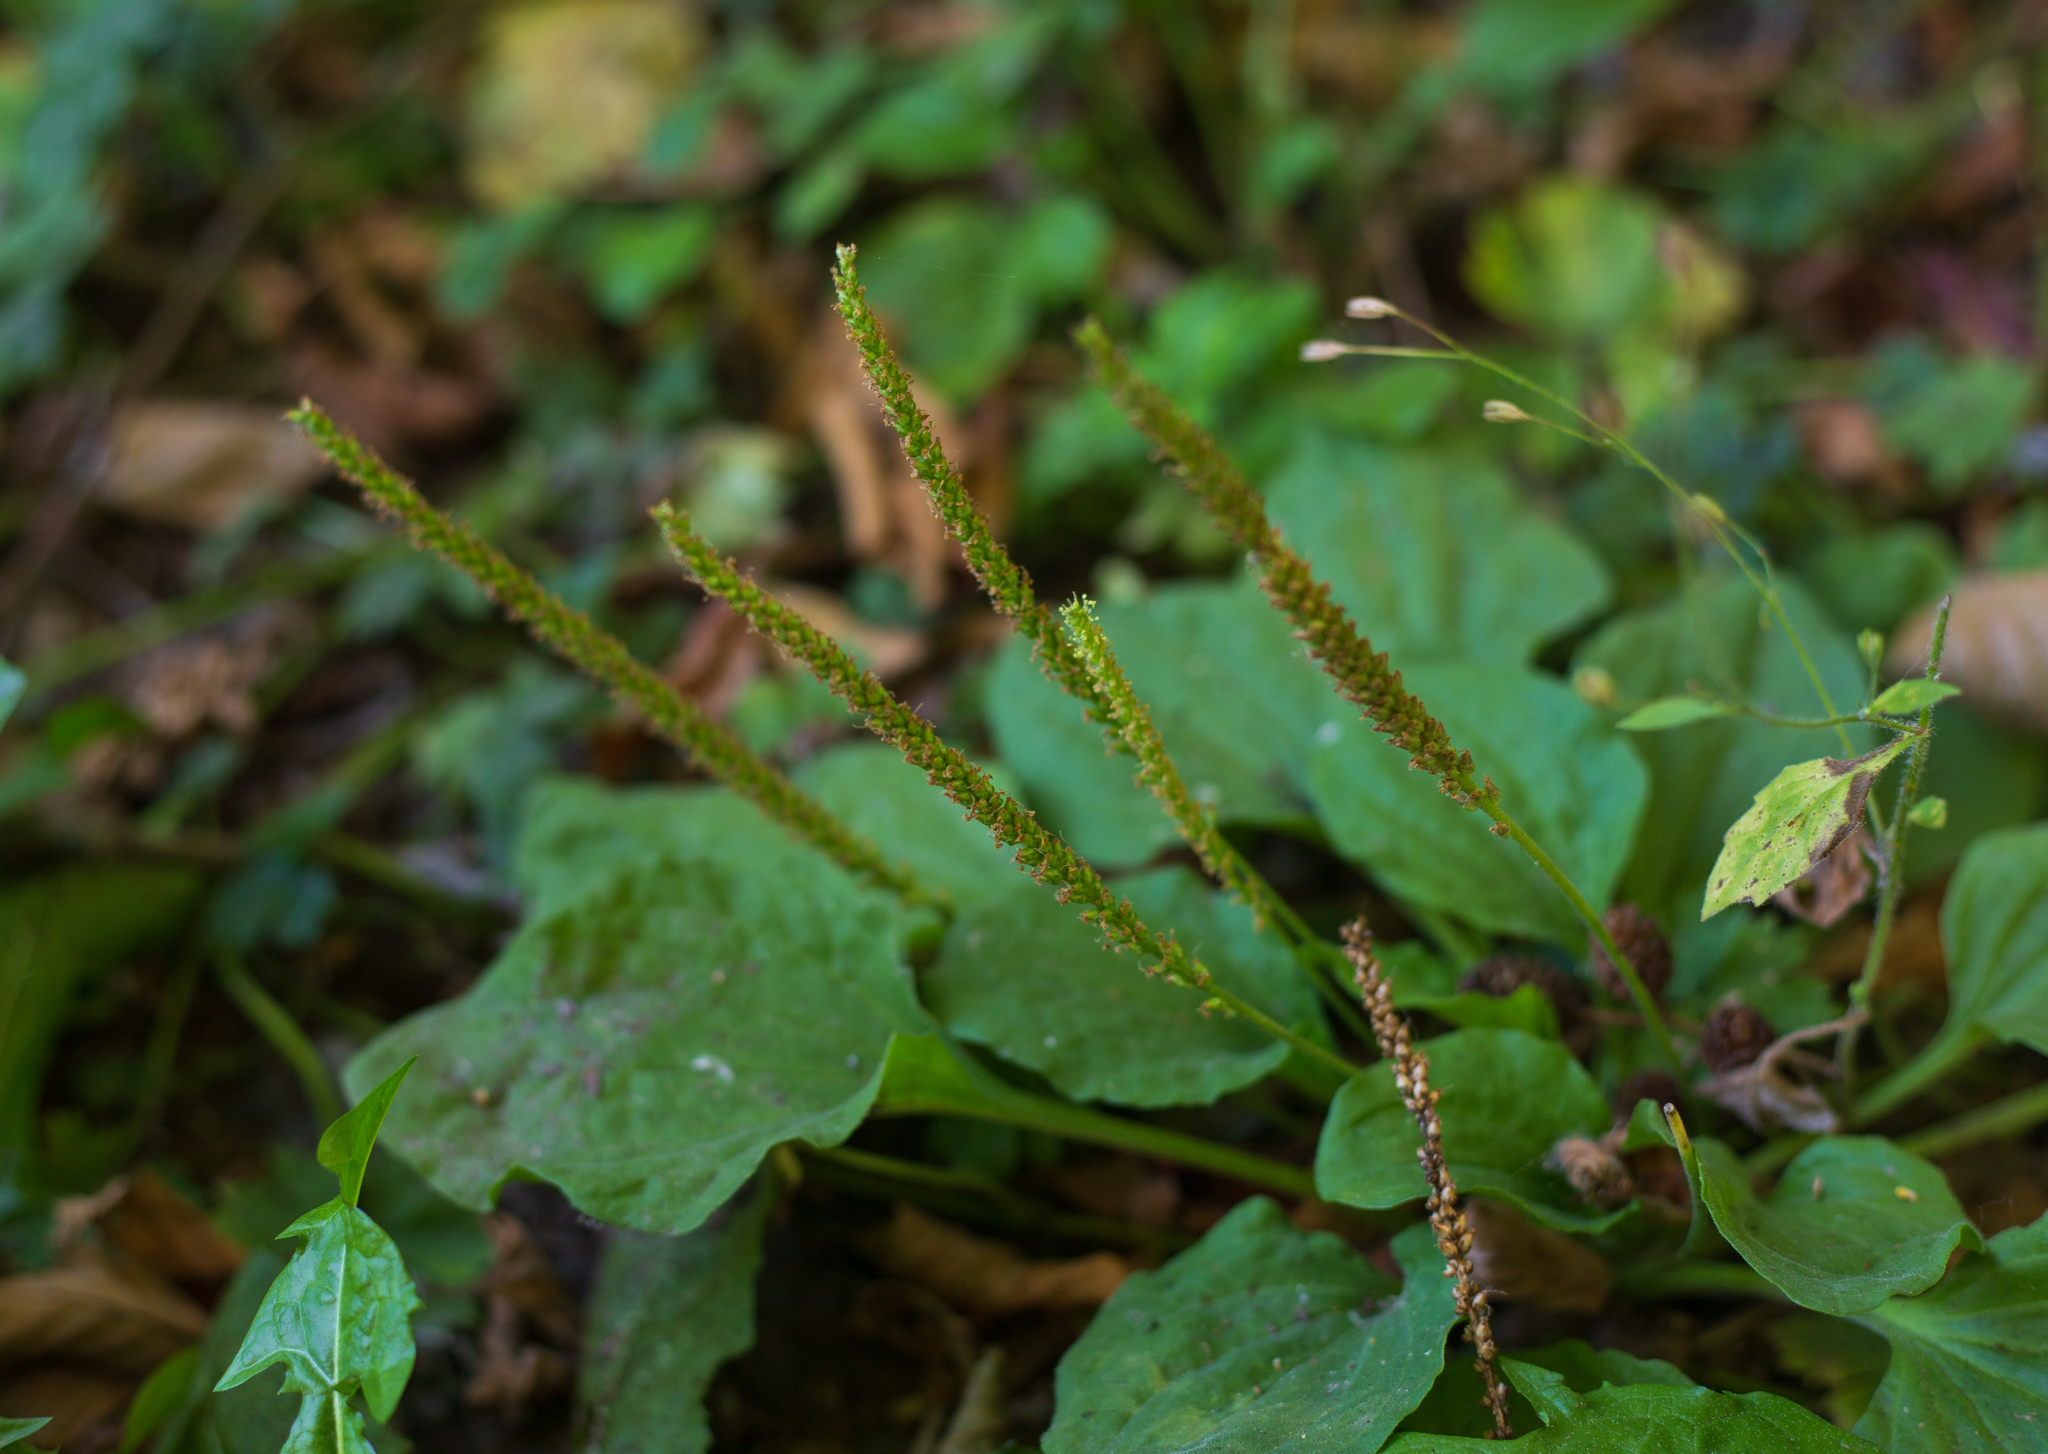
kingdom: Plantae
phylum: Tracheophyta
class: Magnoliopsida
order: Lamiales
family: Plantaginaceae
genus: Plantago
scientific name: Plantago major
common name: Common plantain
